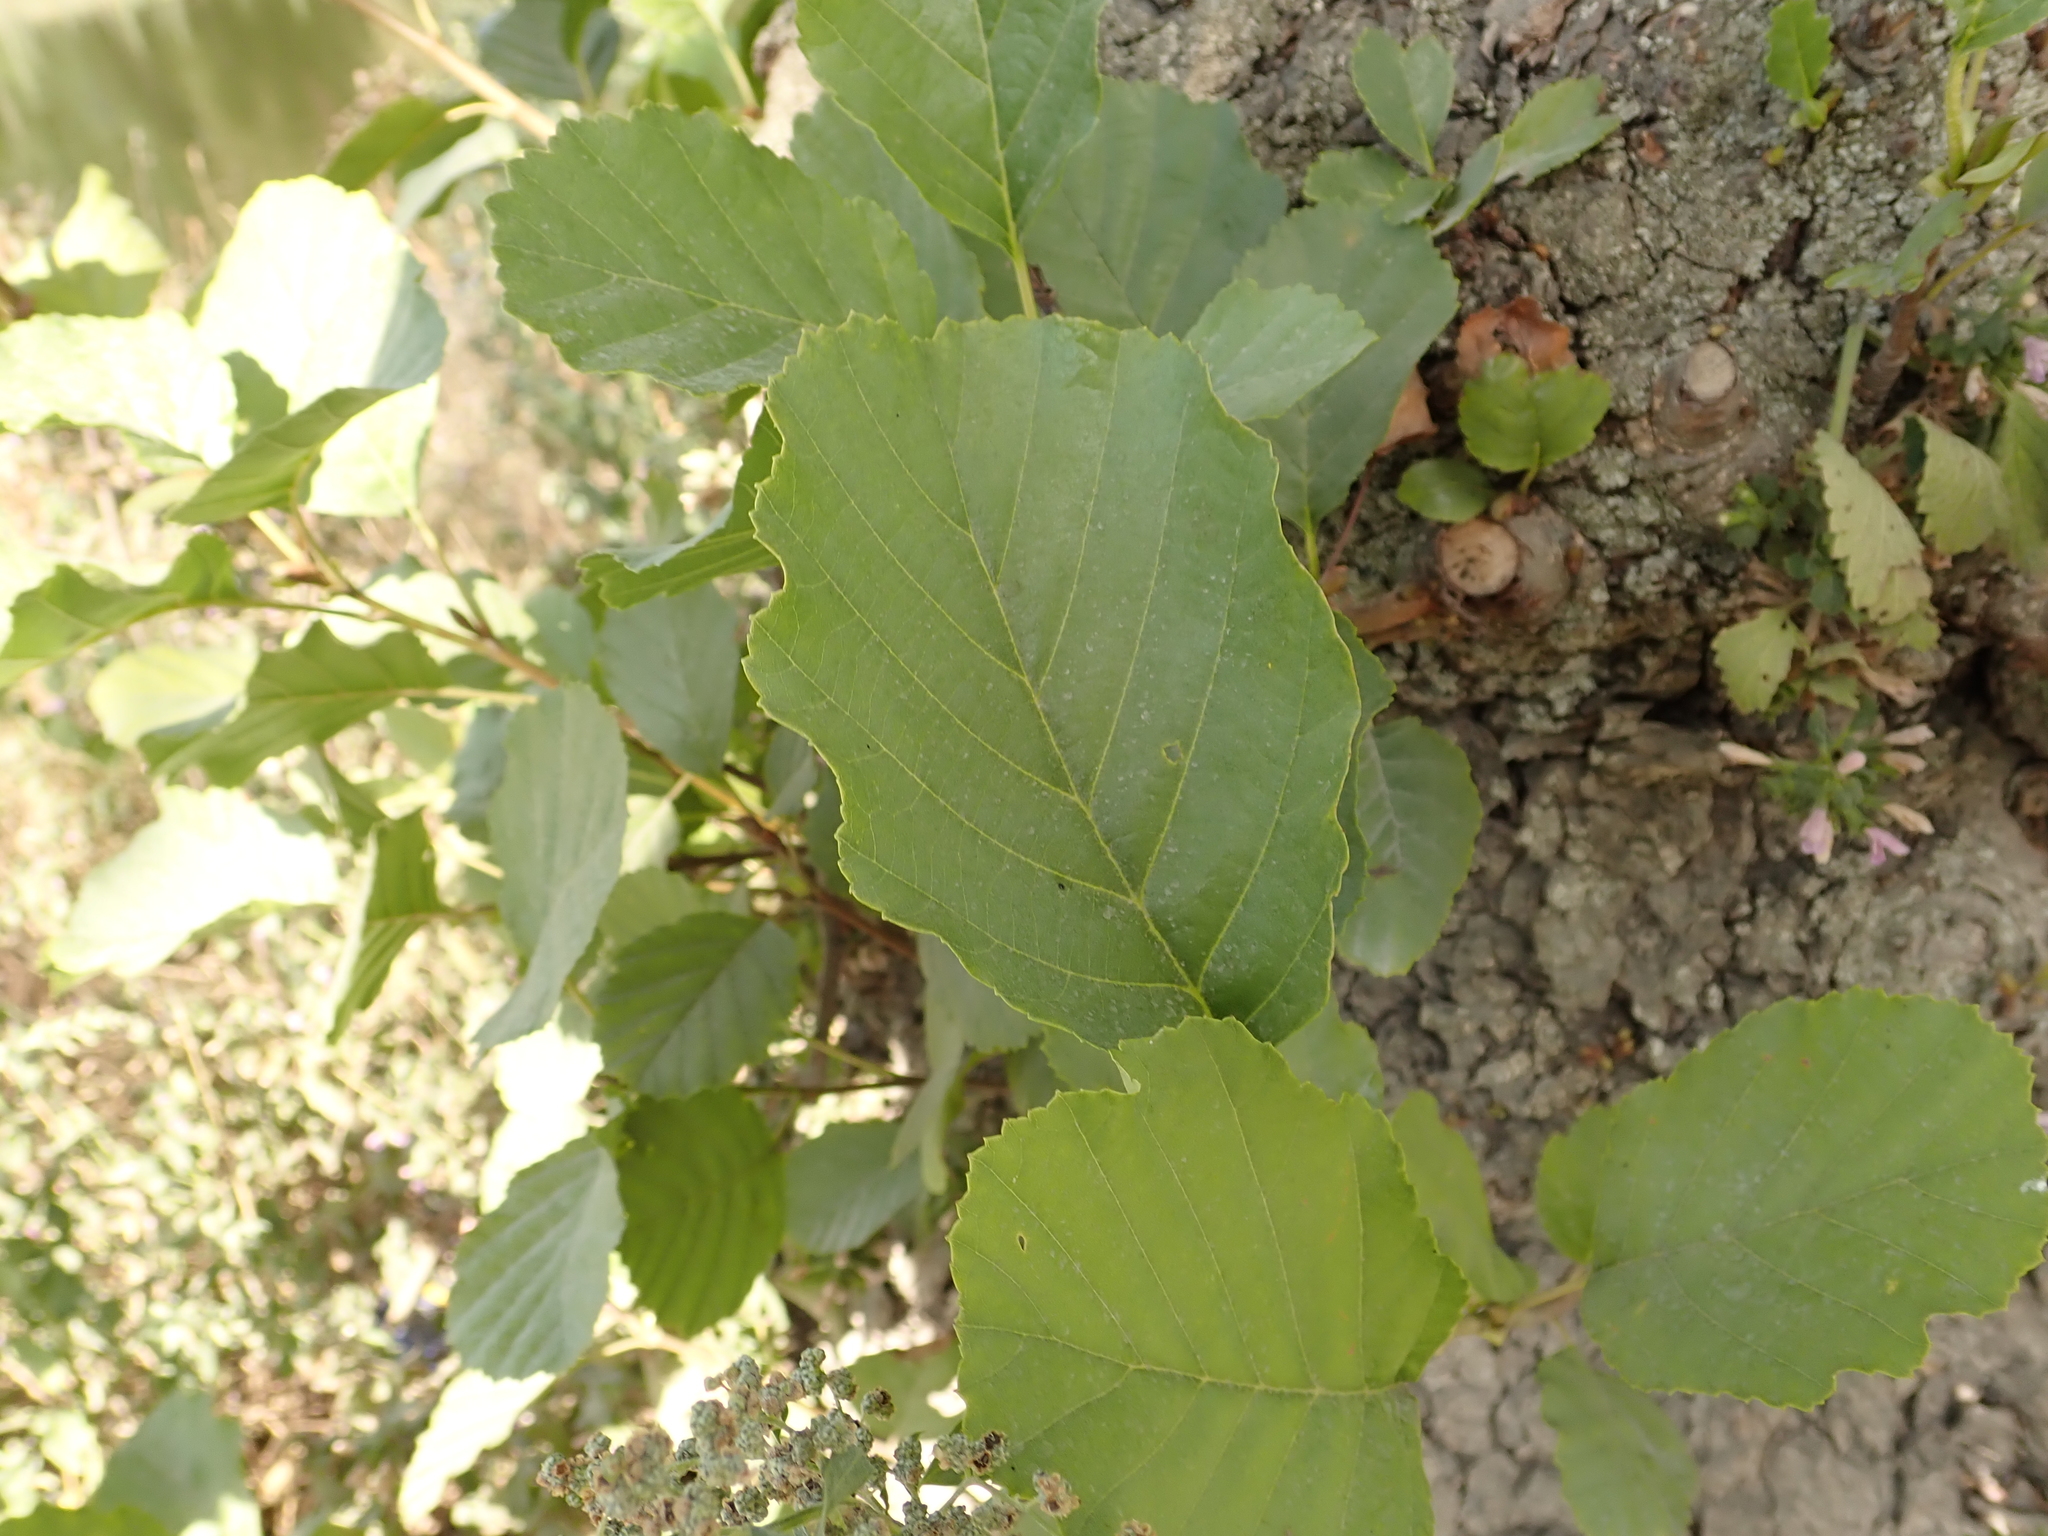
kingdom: Plantae
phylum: Tracheophyta
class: Magnoliopsida
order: Fagales
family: Betulaceae
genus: Alnus
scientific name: Alnus glutinosa
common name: Black alder
